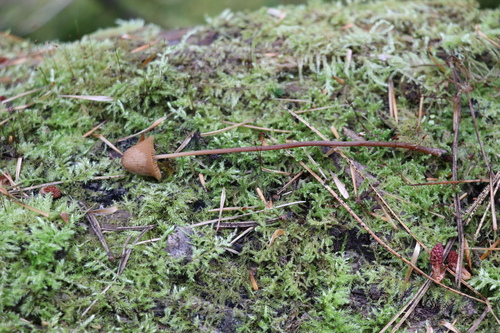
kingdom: Fungi
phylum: Basidiomycota
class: Agaricomycetes
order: Agaricales
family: Bolbitiaceae
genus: Conocybe
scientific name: Conocybe semiglobata
